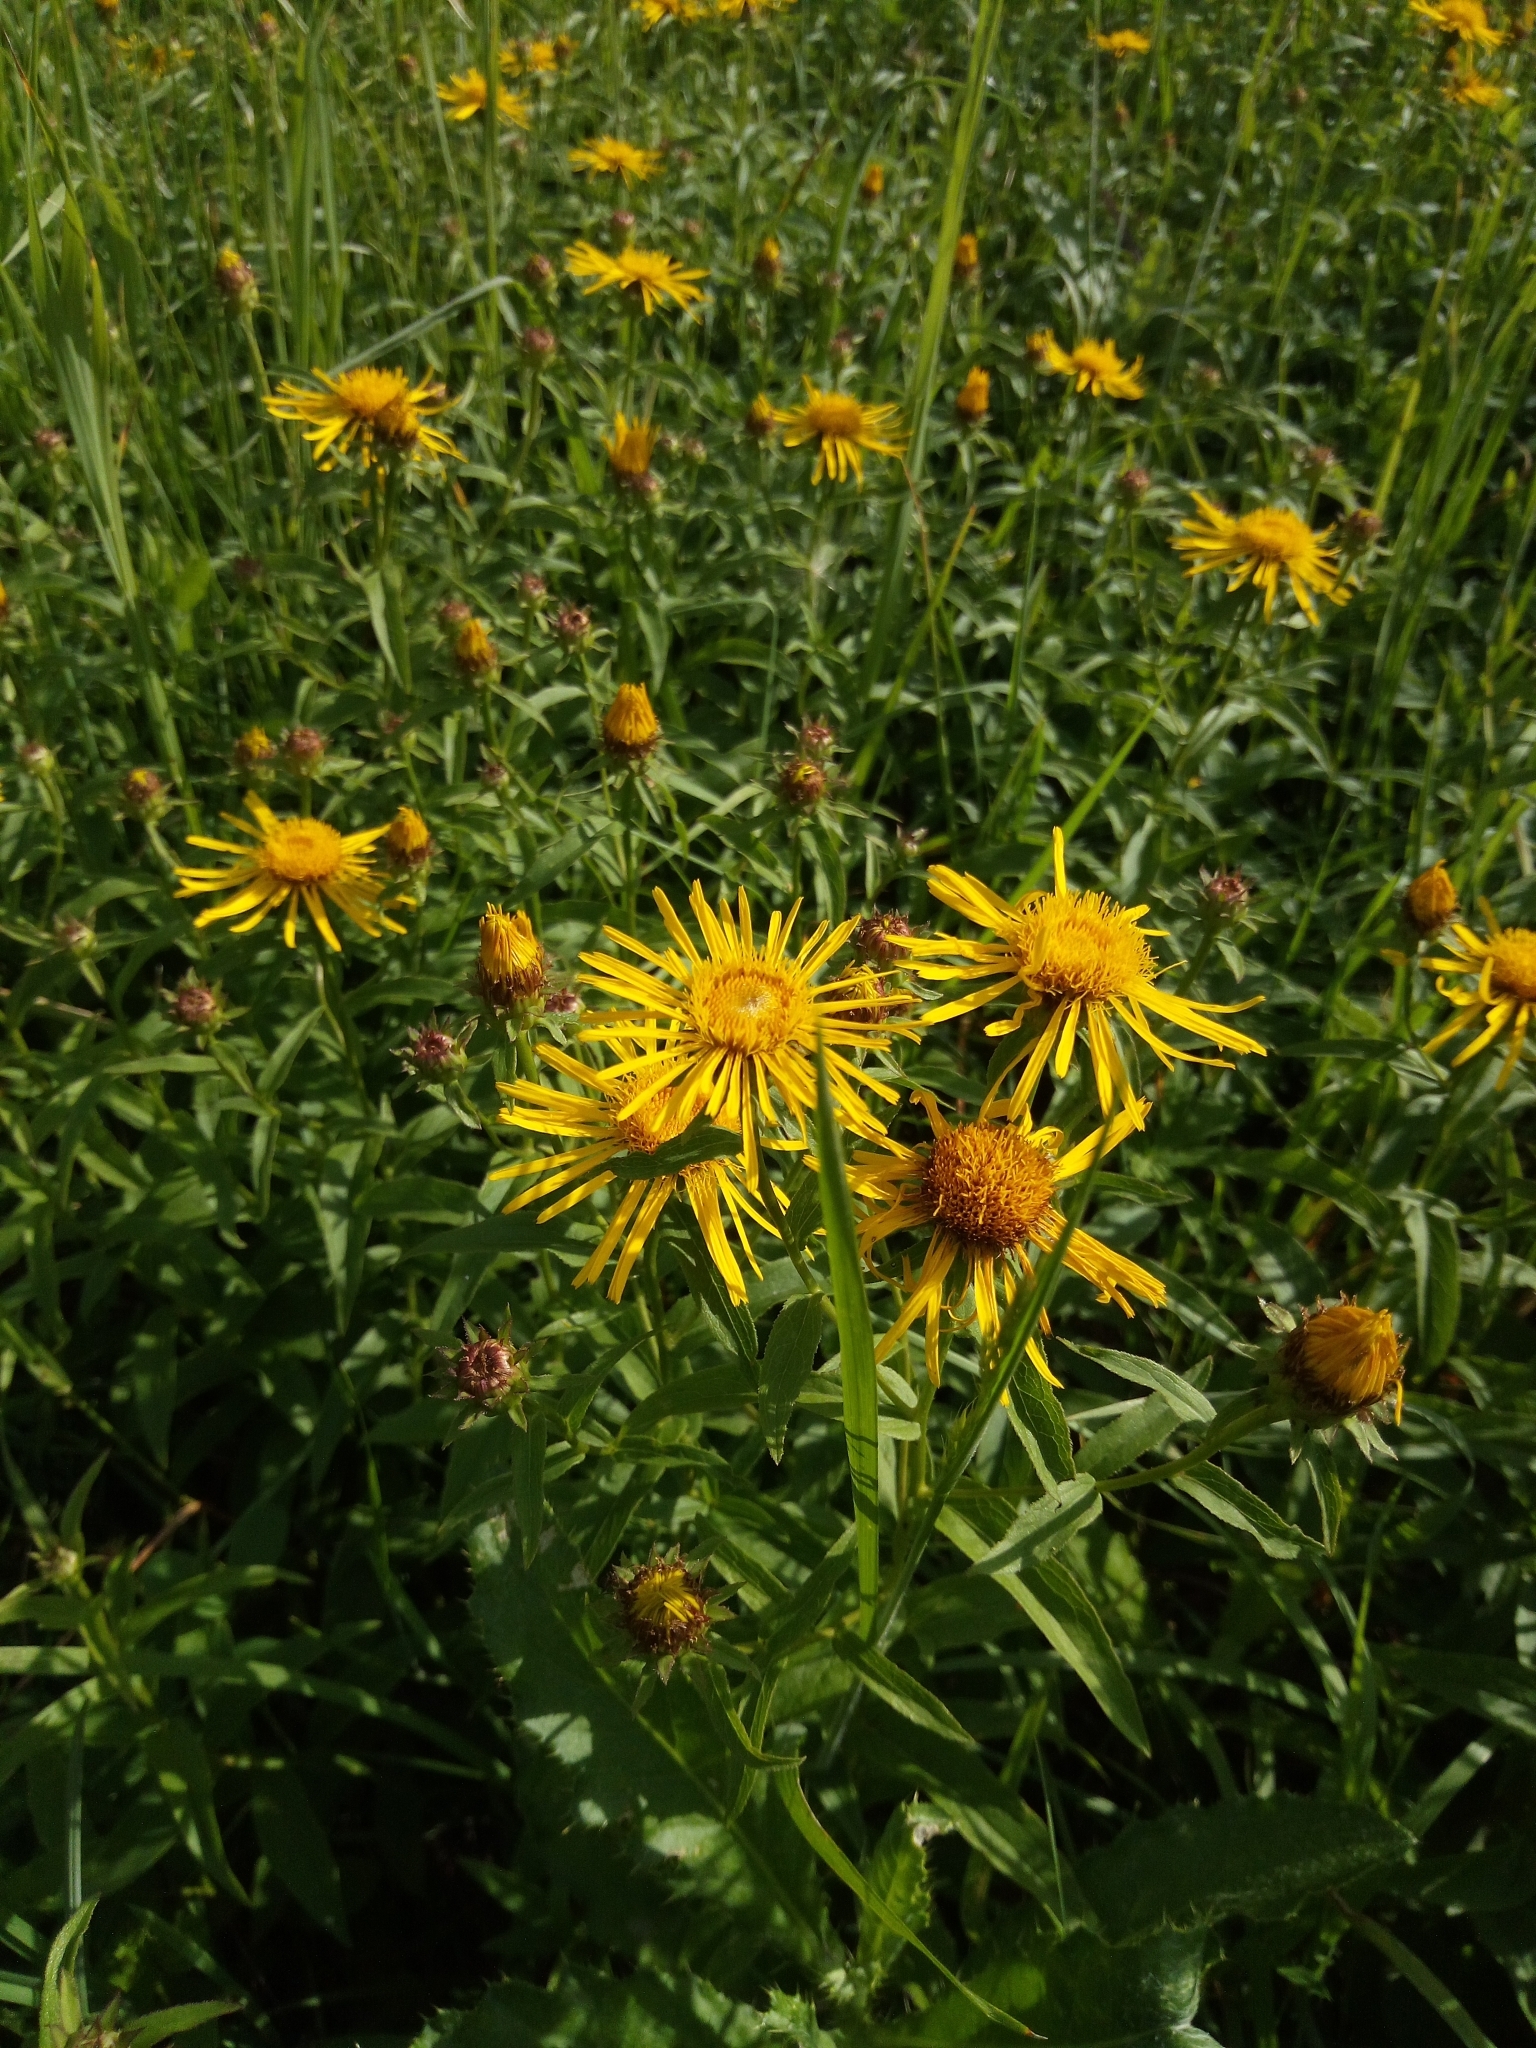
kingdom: Plantae
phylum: Tracheophyta
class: Magnoliopsida
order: Asterales
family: Asteraceae
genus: Pentanema
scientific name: Pentanema salicinum
